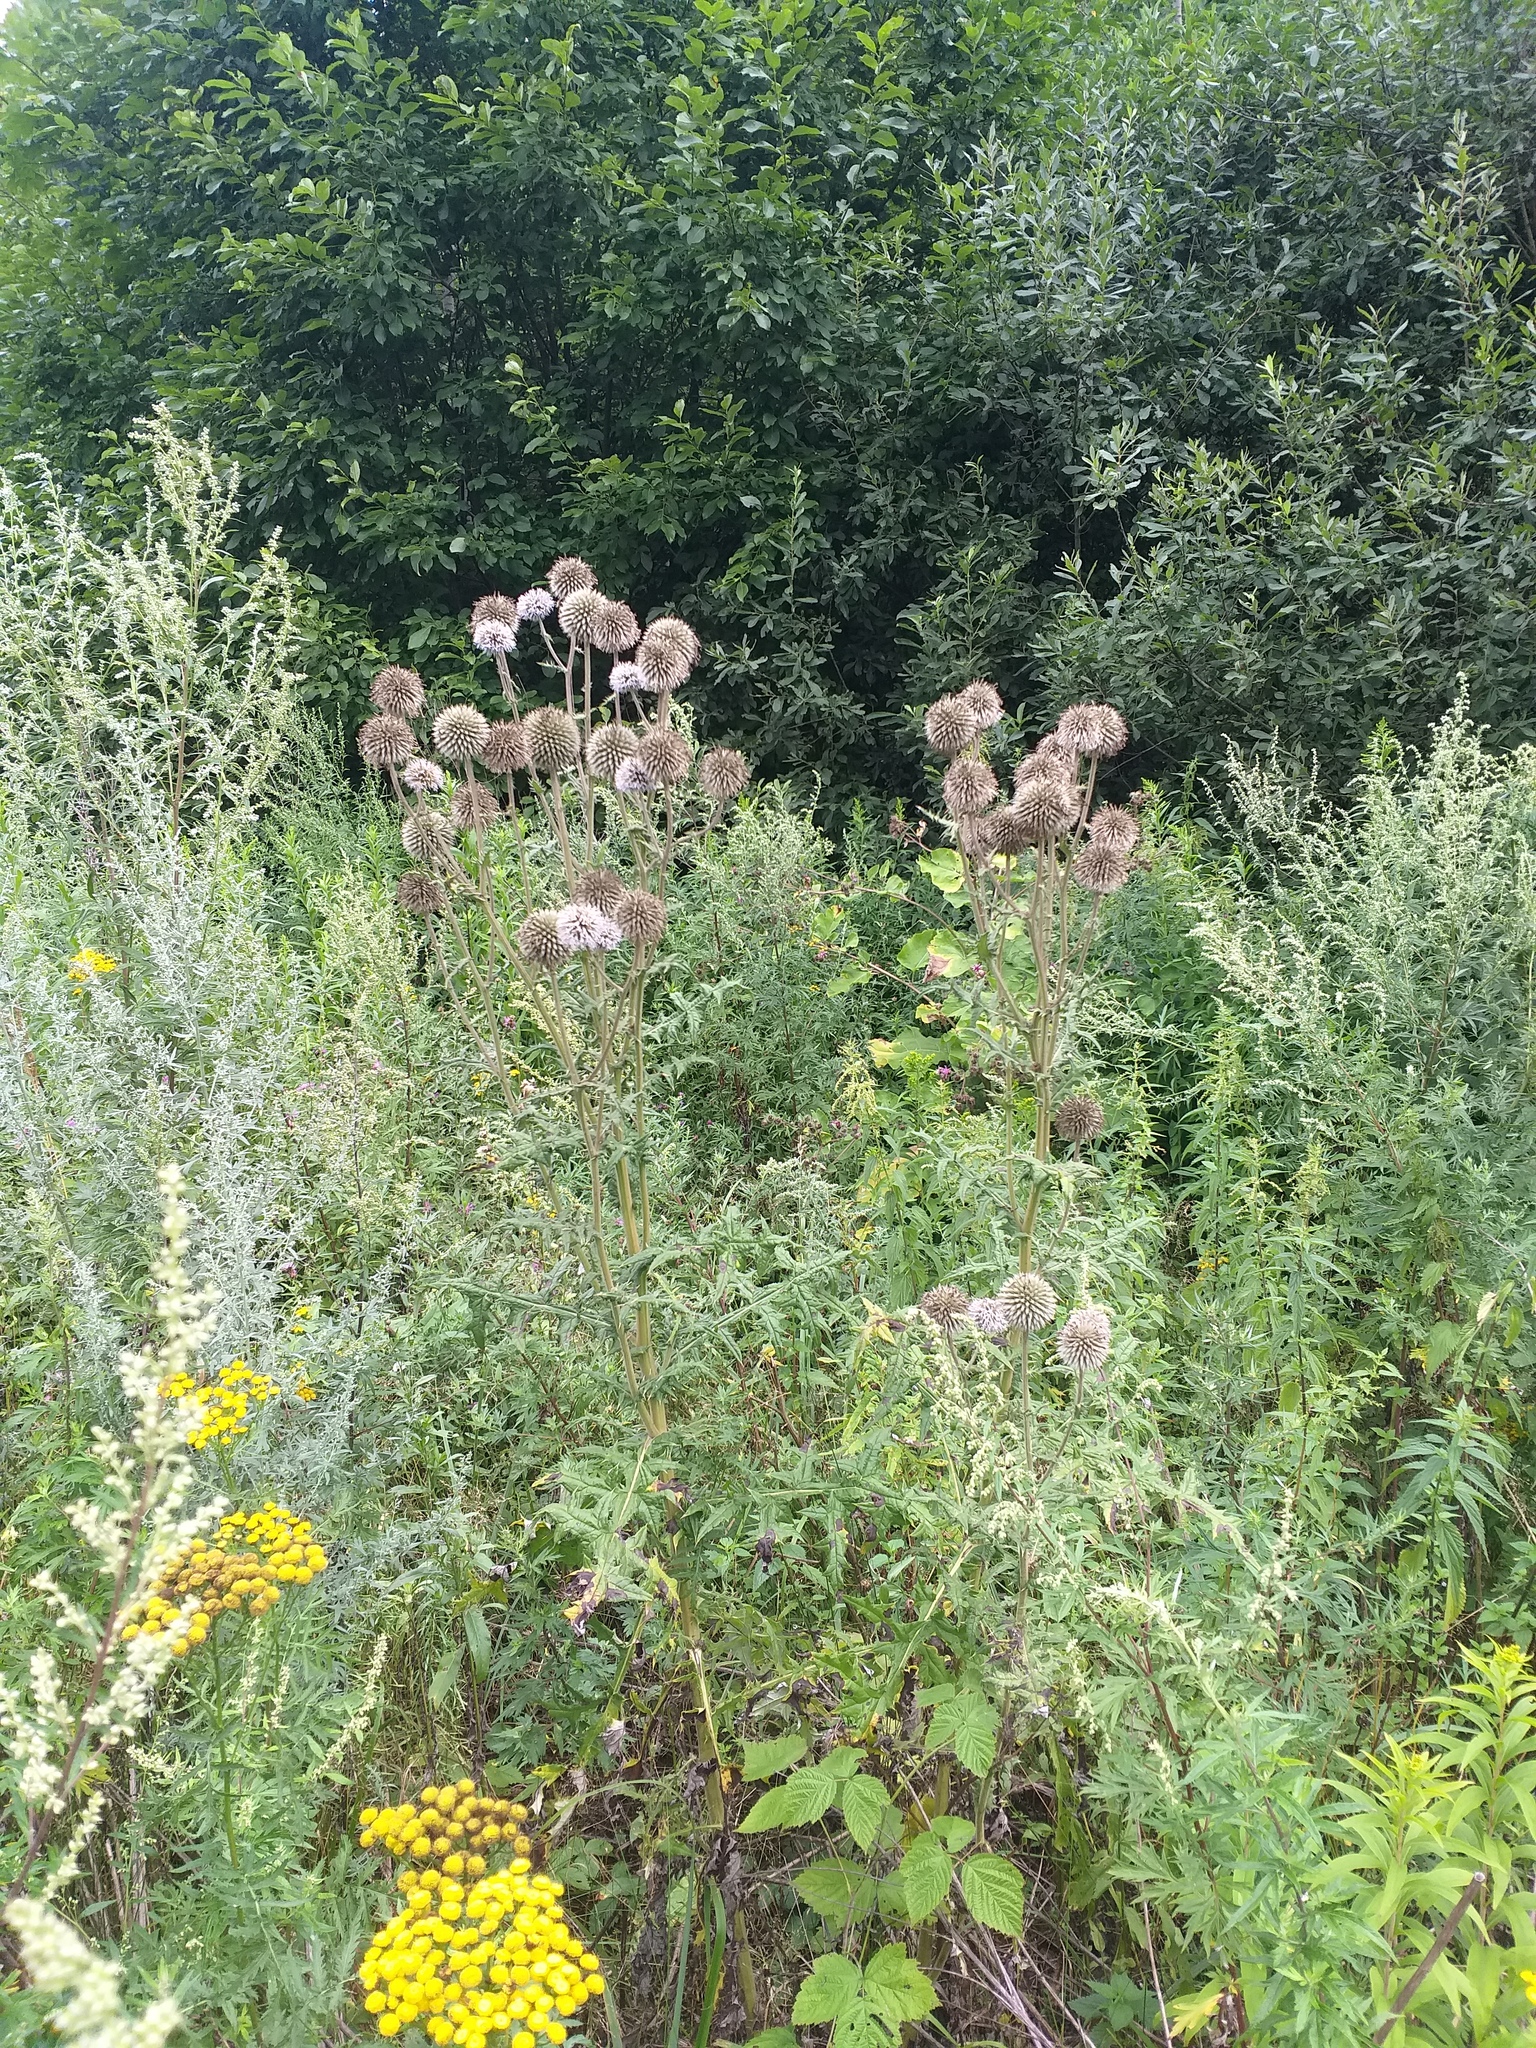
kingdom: Plantae
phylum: Tracheophyta
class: Magnoliopsida
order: Asterales
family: Asteraceae
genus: Echinops
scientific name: Echinops sphaerocephalus
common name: Glandular globe-thistle
